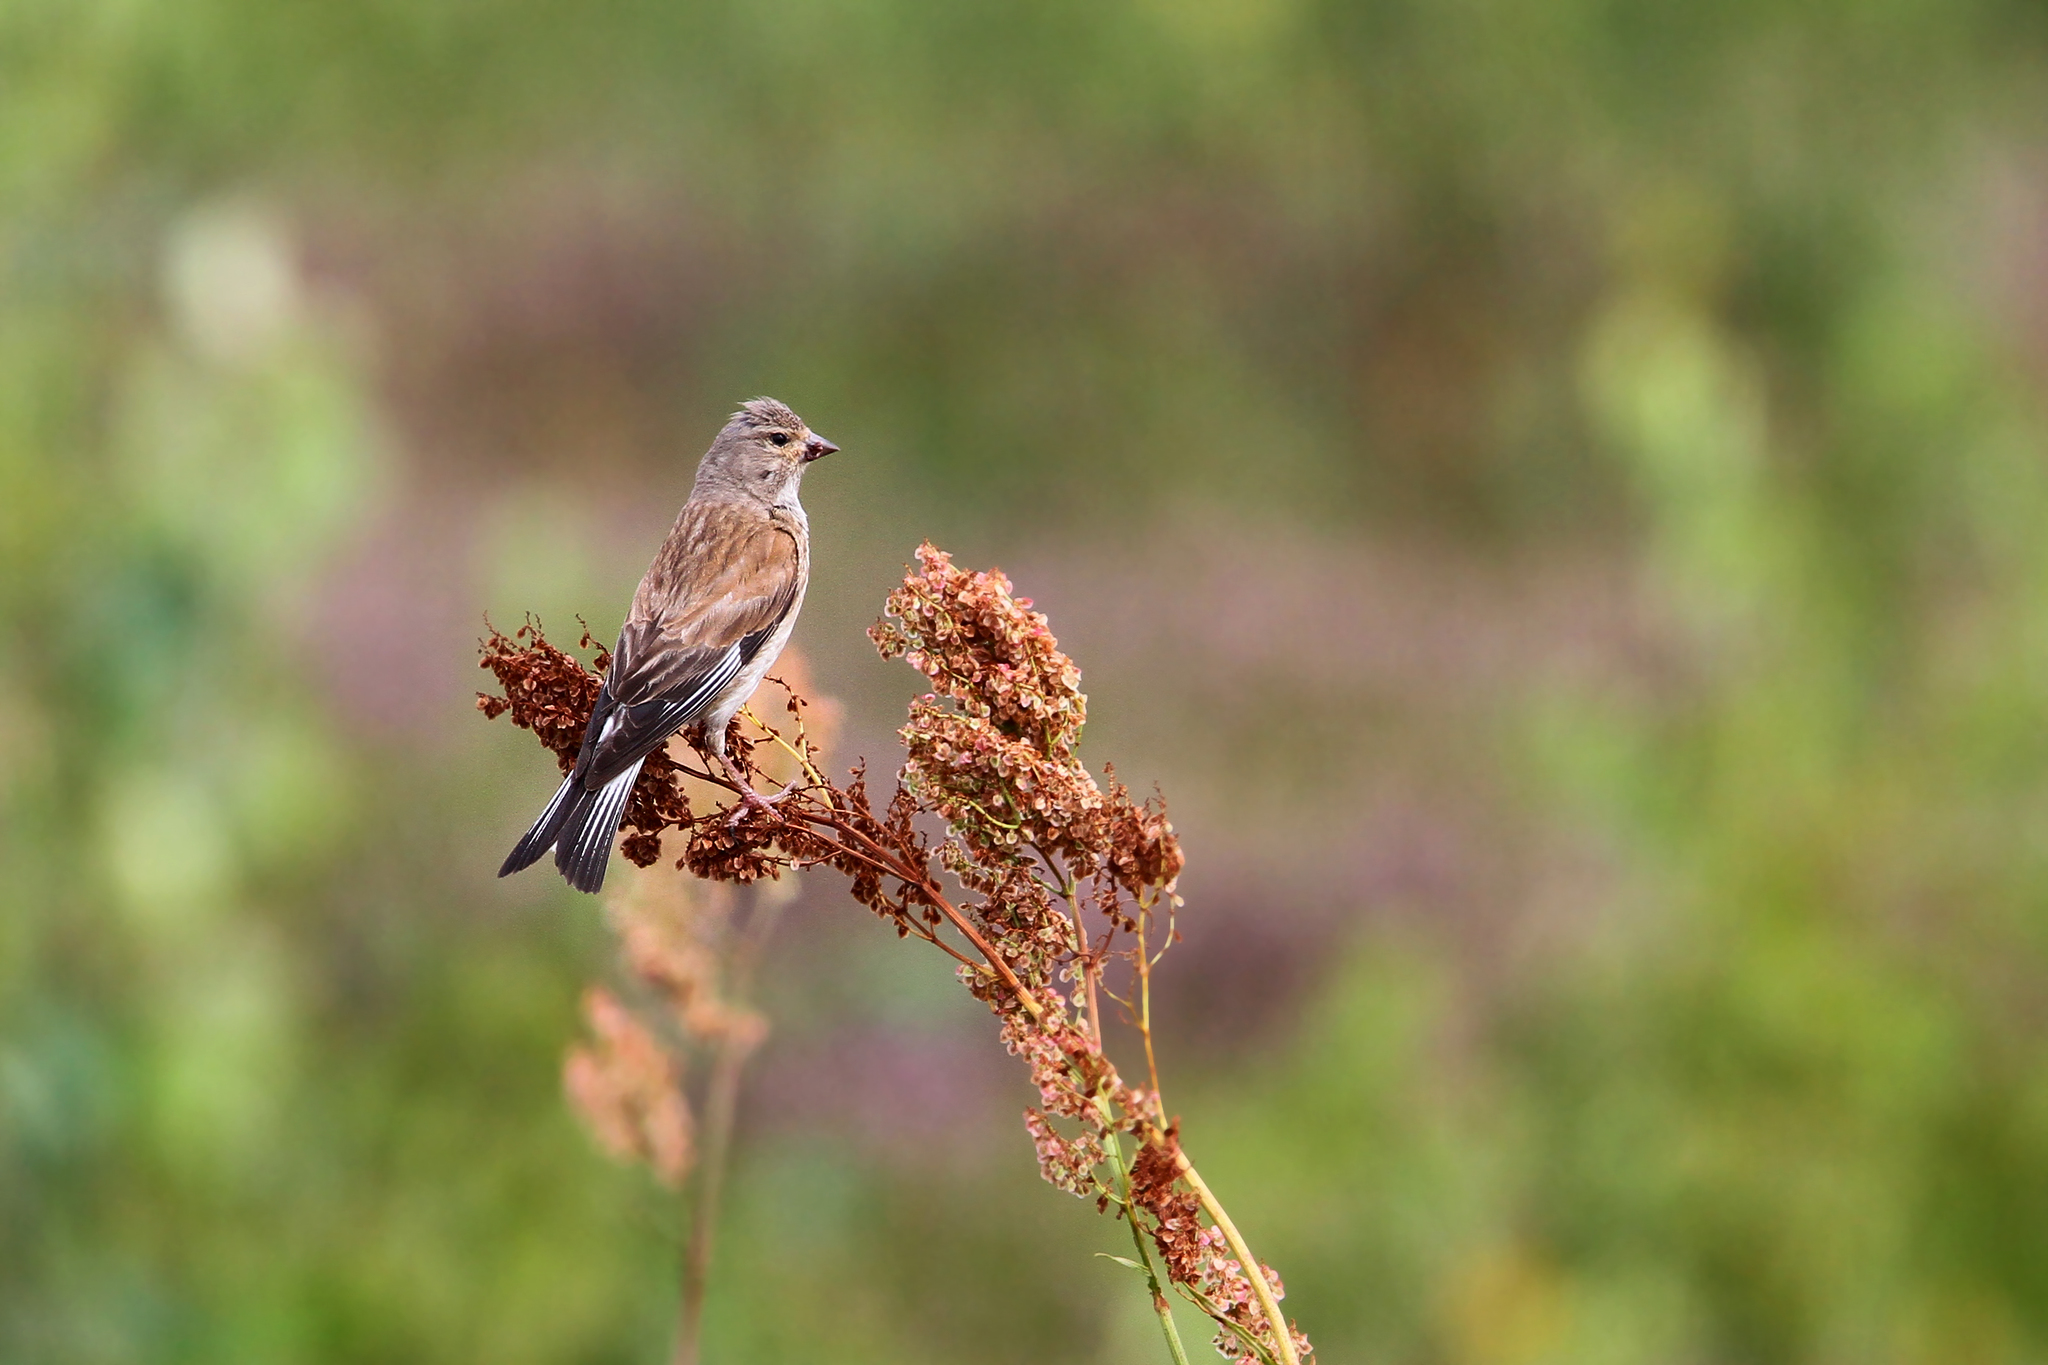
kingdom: Animalia
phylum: Chordata
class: Aves
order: Passeriformes
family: Fringillidae
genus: Linaria
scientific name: Linaria cannabina
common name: Common linnet
